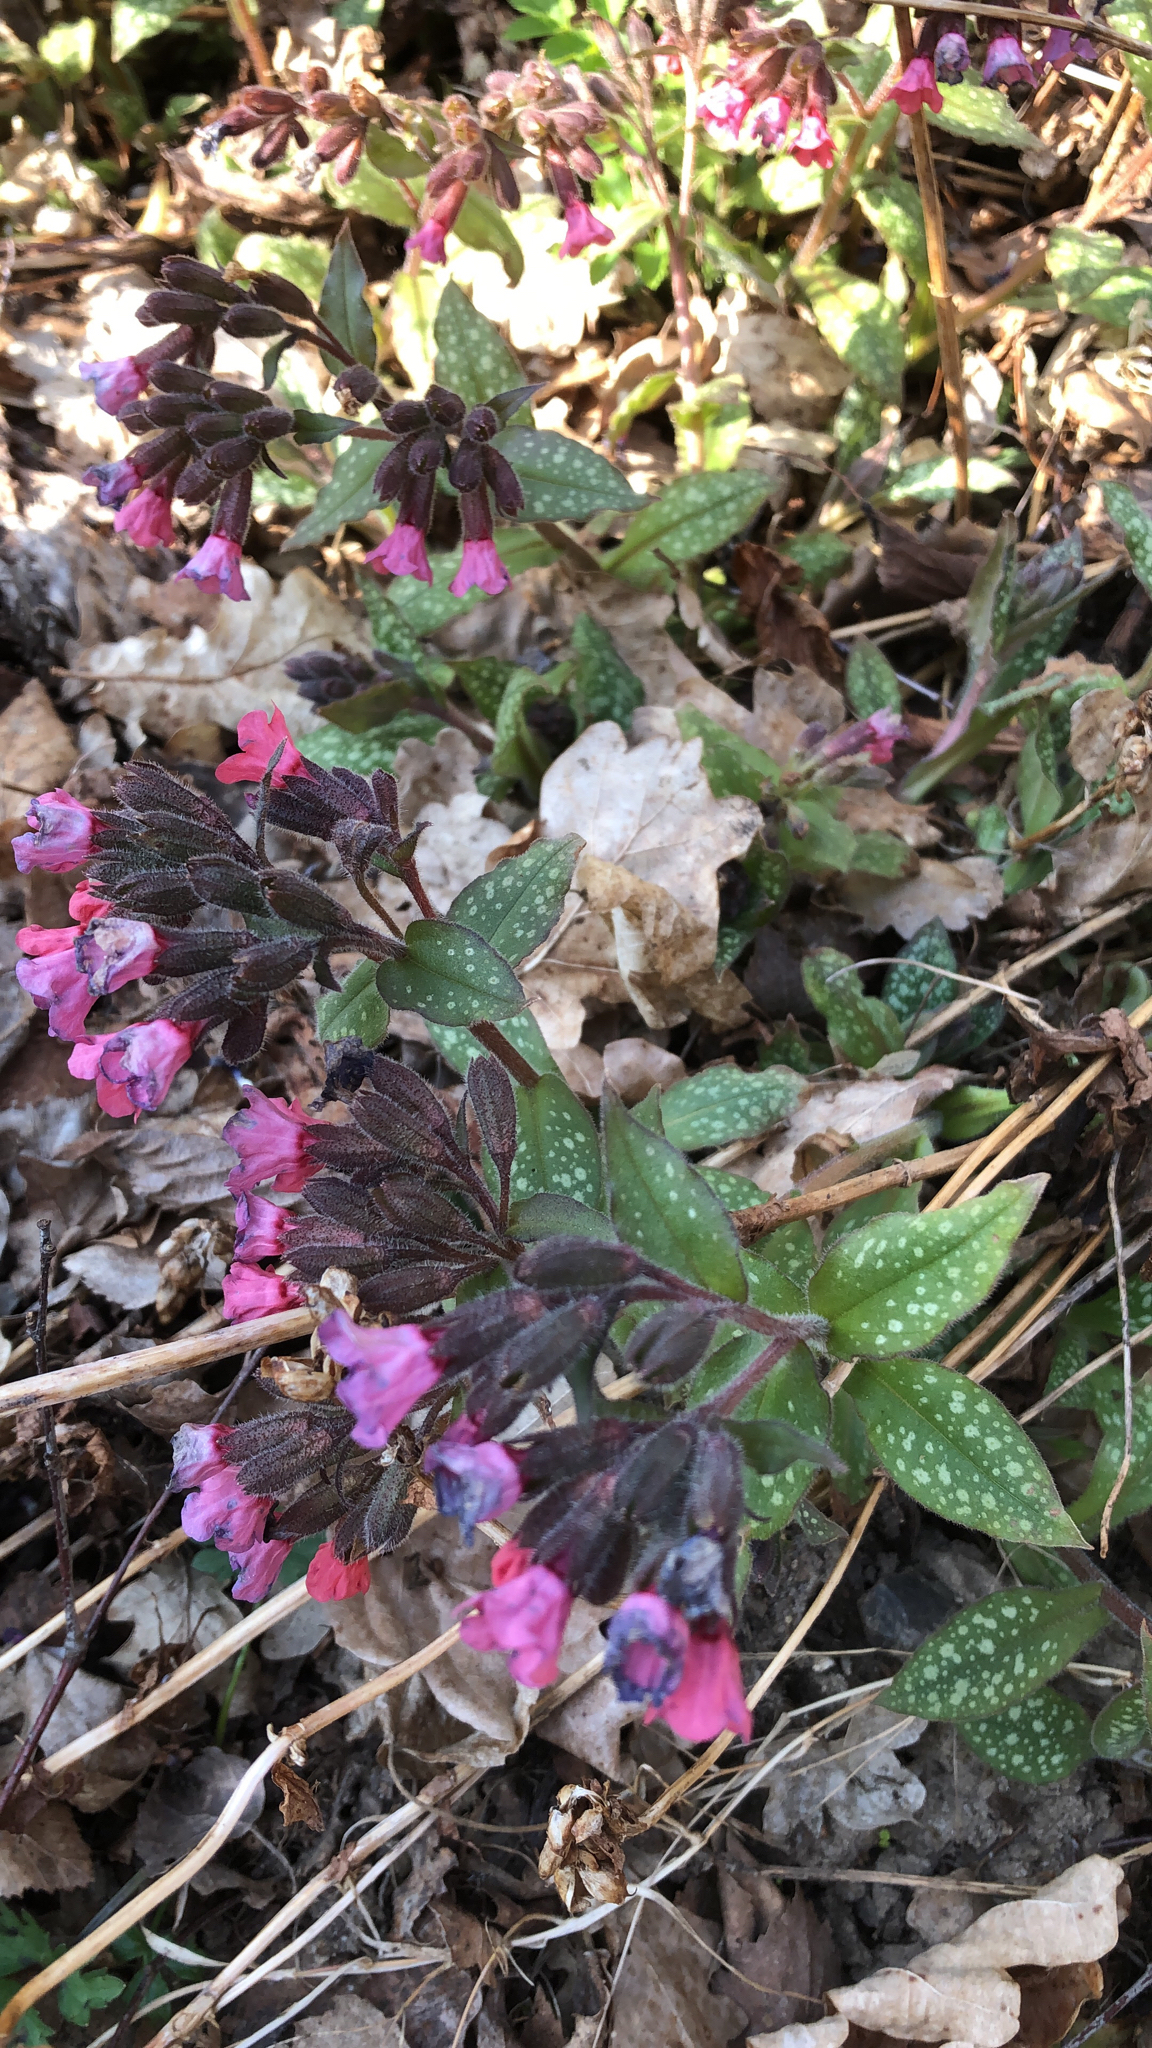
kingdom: Plantae
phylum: Tracheophyta
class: Magnoliopsida
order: Boraginales
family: Boraginaceae
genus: Pulmonaria
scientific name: Pulmonaria officinalis
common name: Lungwort
